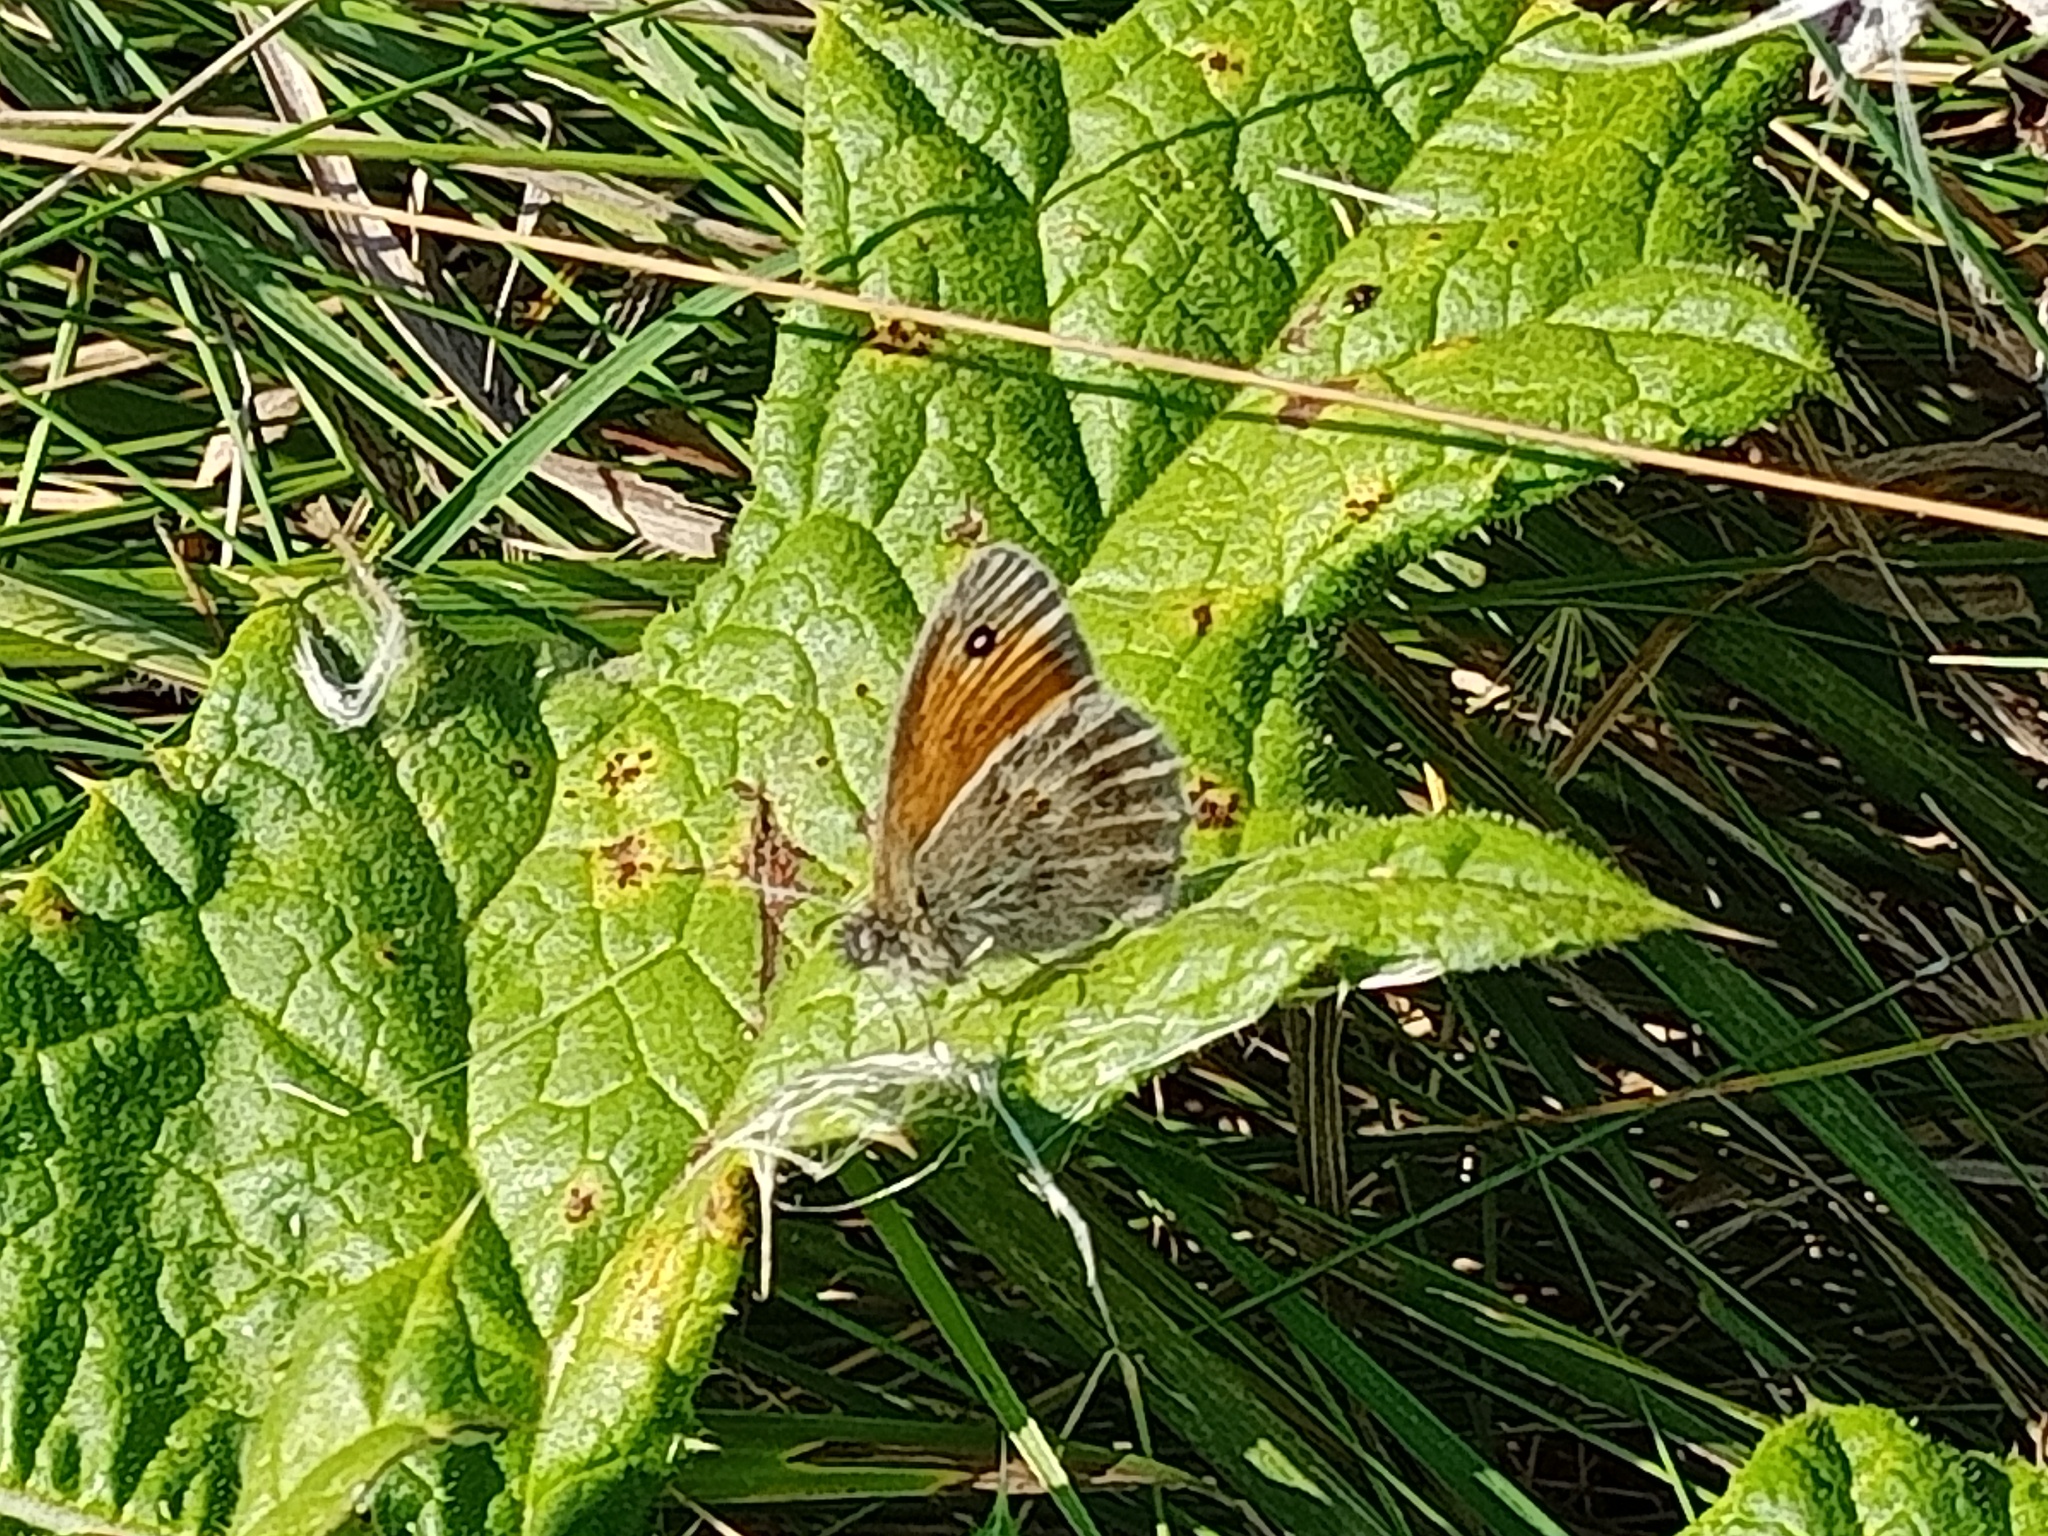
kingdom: Animalia
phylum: Arthropoda
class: Insecta
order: Lepidoptera
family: Nymphalidae
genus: Coenonympha
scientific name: Coenonympha pamphilus
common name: Small heath
